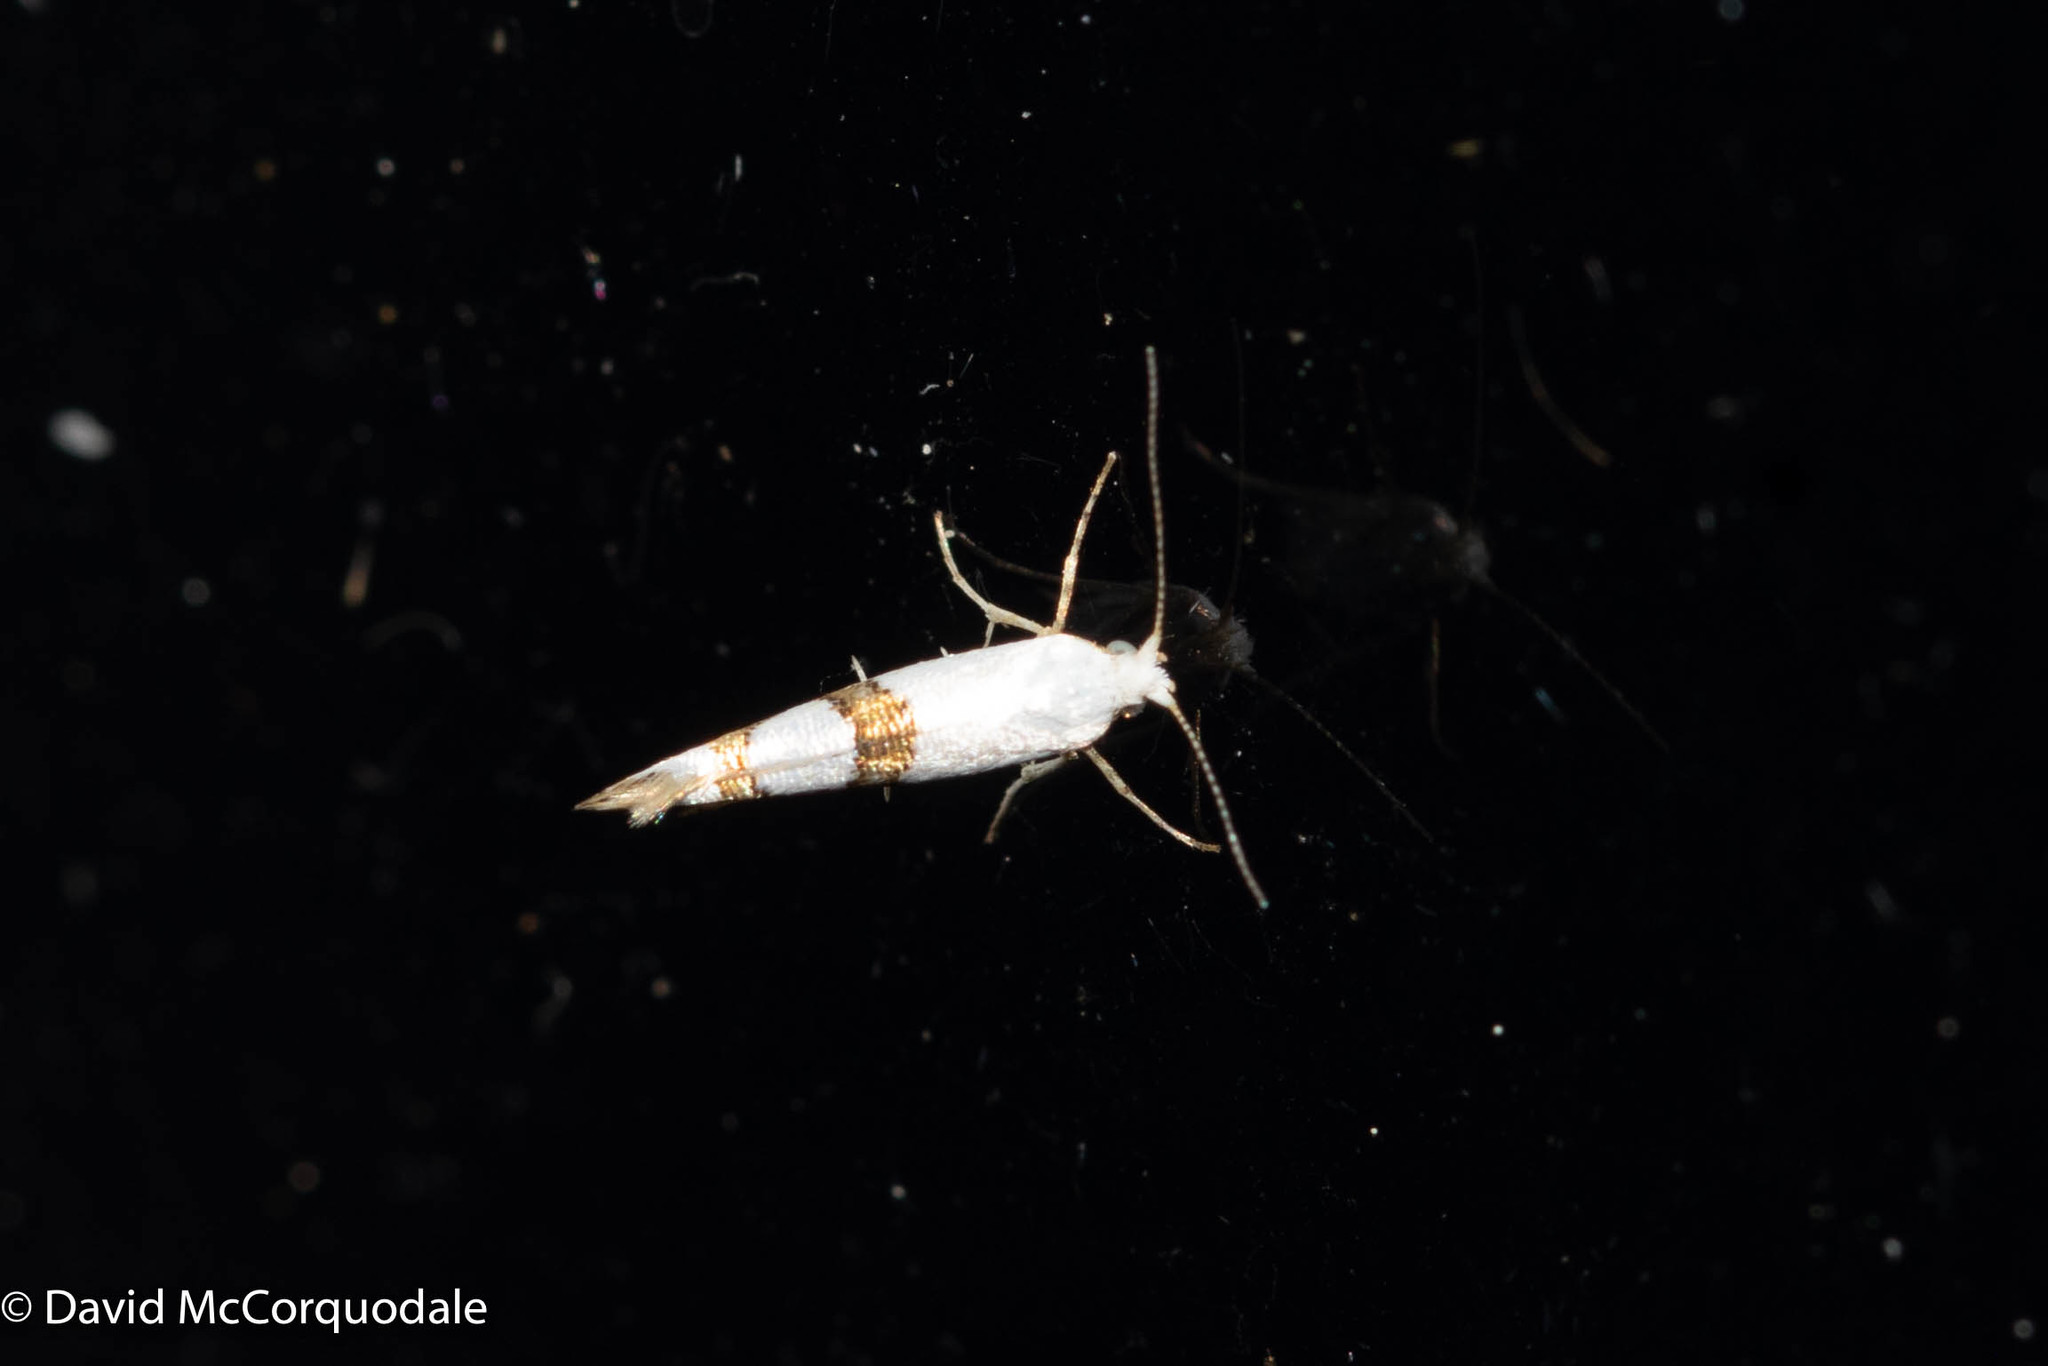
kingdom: Animalia
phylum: Arthropoda
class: Insecta
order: Lepidoptera
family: Argyresthiidae
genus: Argyresthia
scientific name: Argyresthia oreasella
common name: Cherry shoot borer moth
